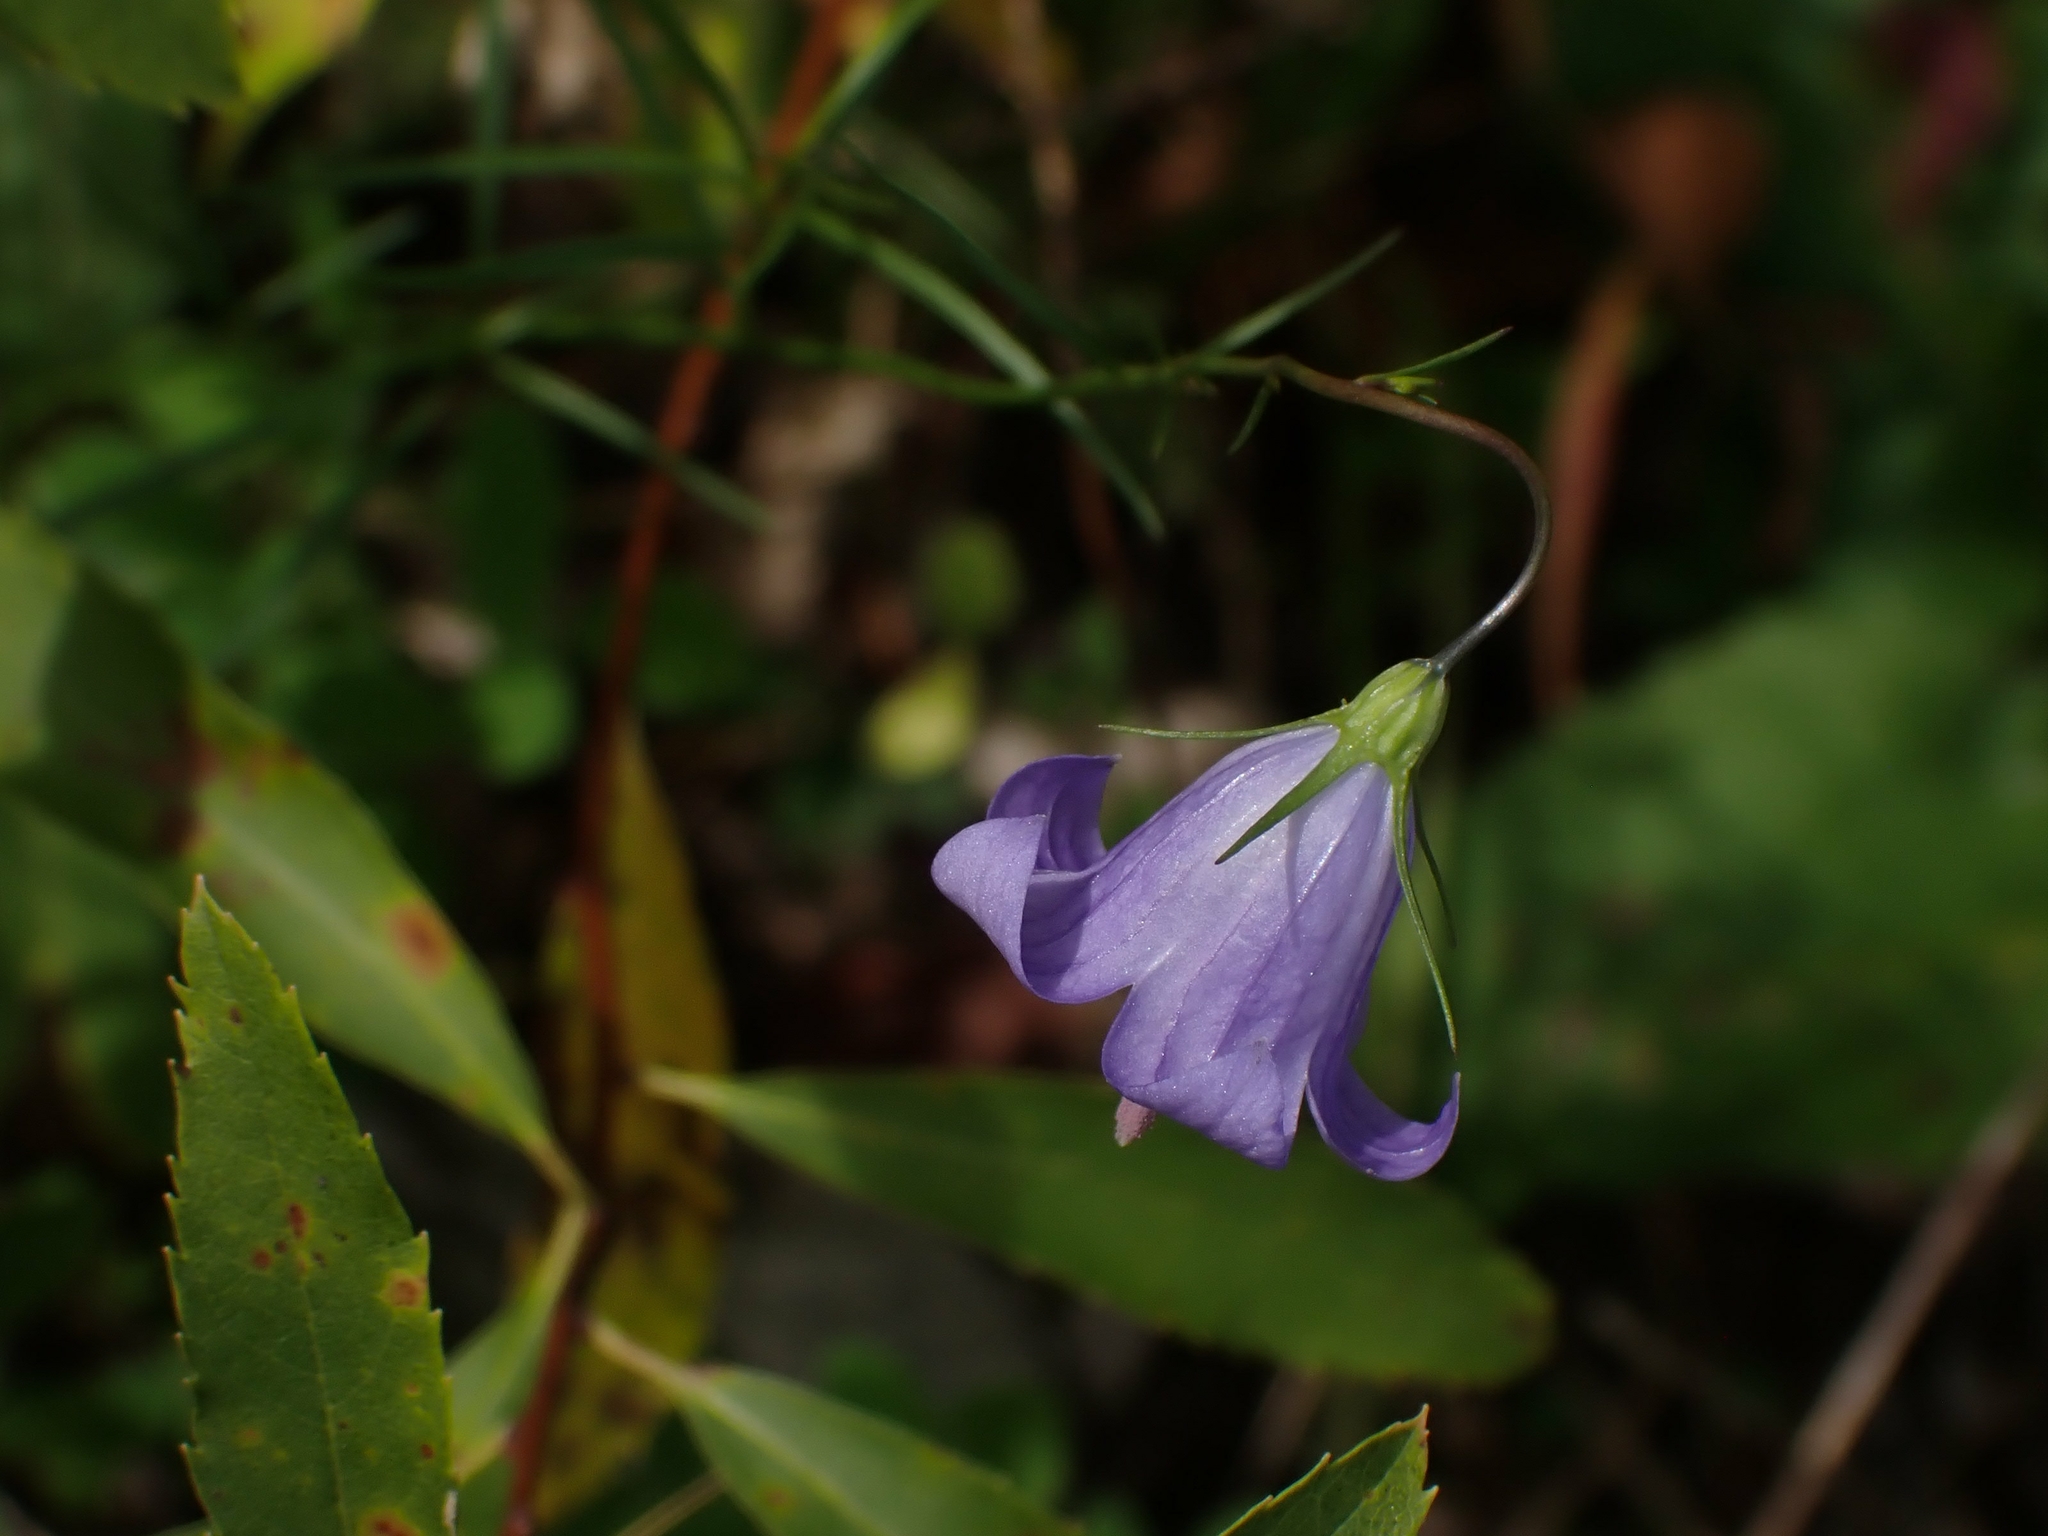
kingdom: Plantae
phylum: Tracheophyta
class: Magnoliopsida
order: Asterales
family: Campanulaceae
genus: Campanula
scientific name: Campanula petiolata
